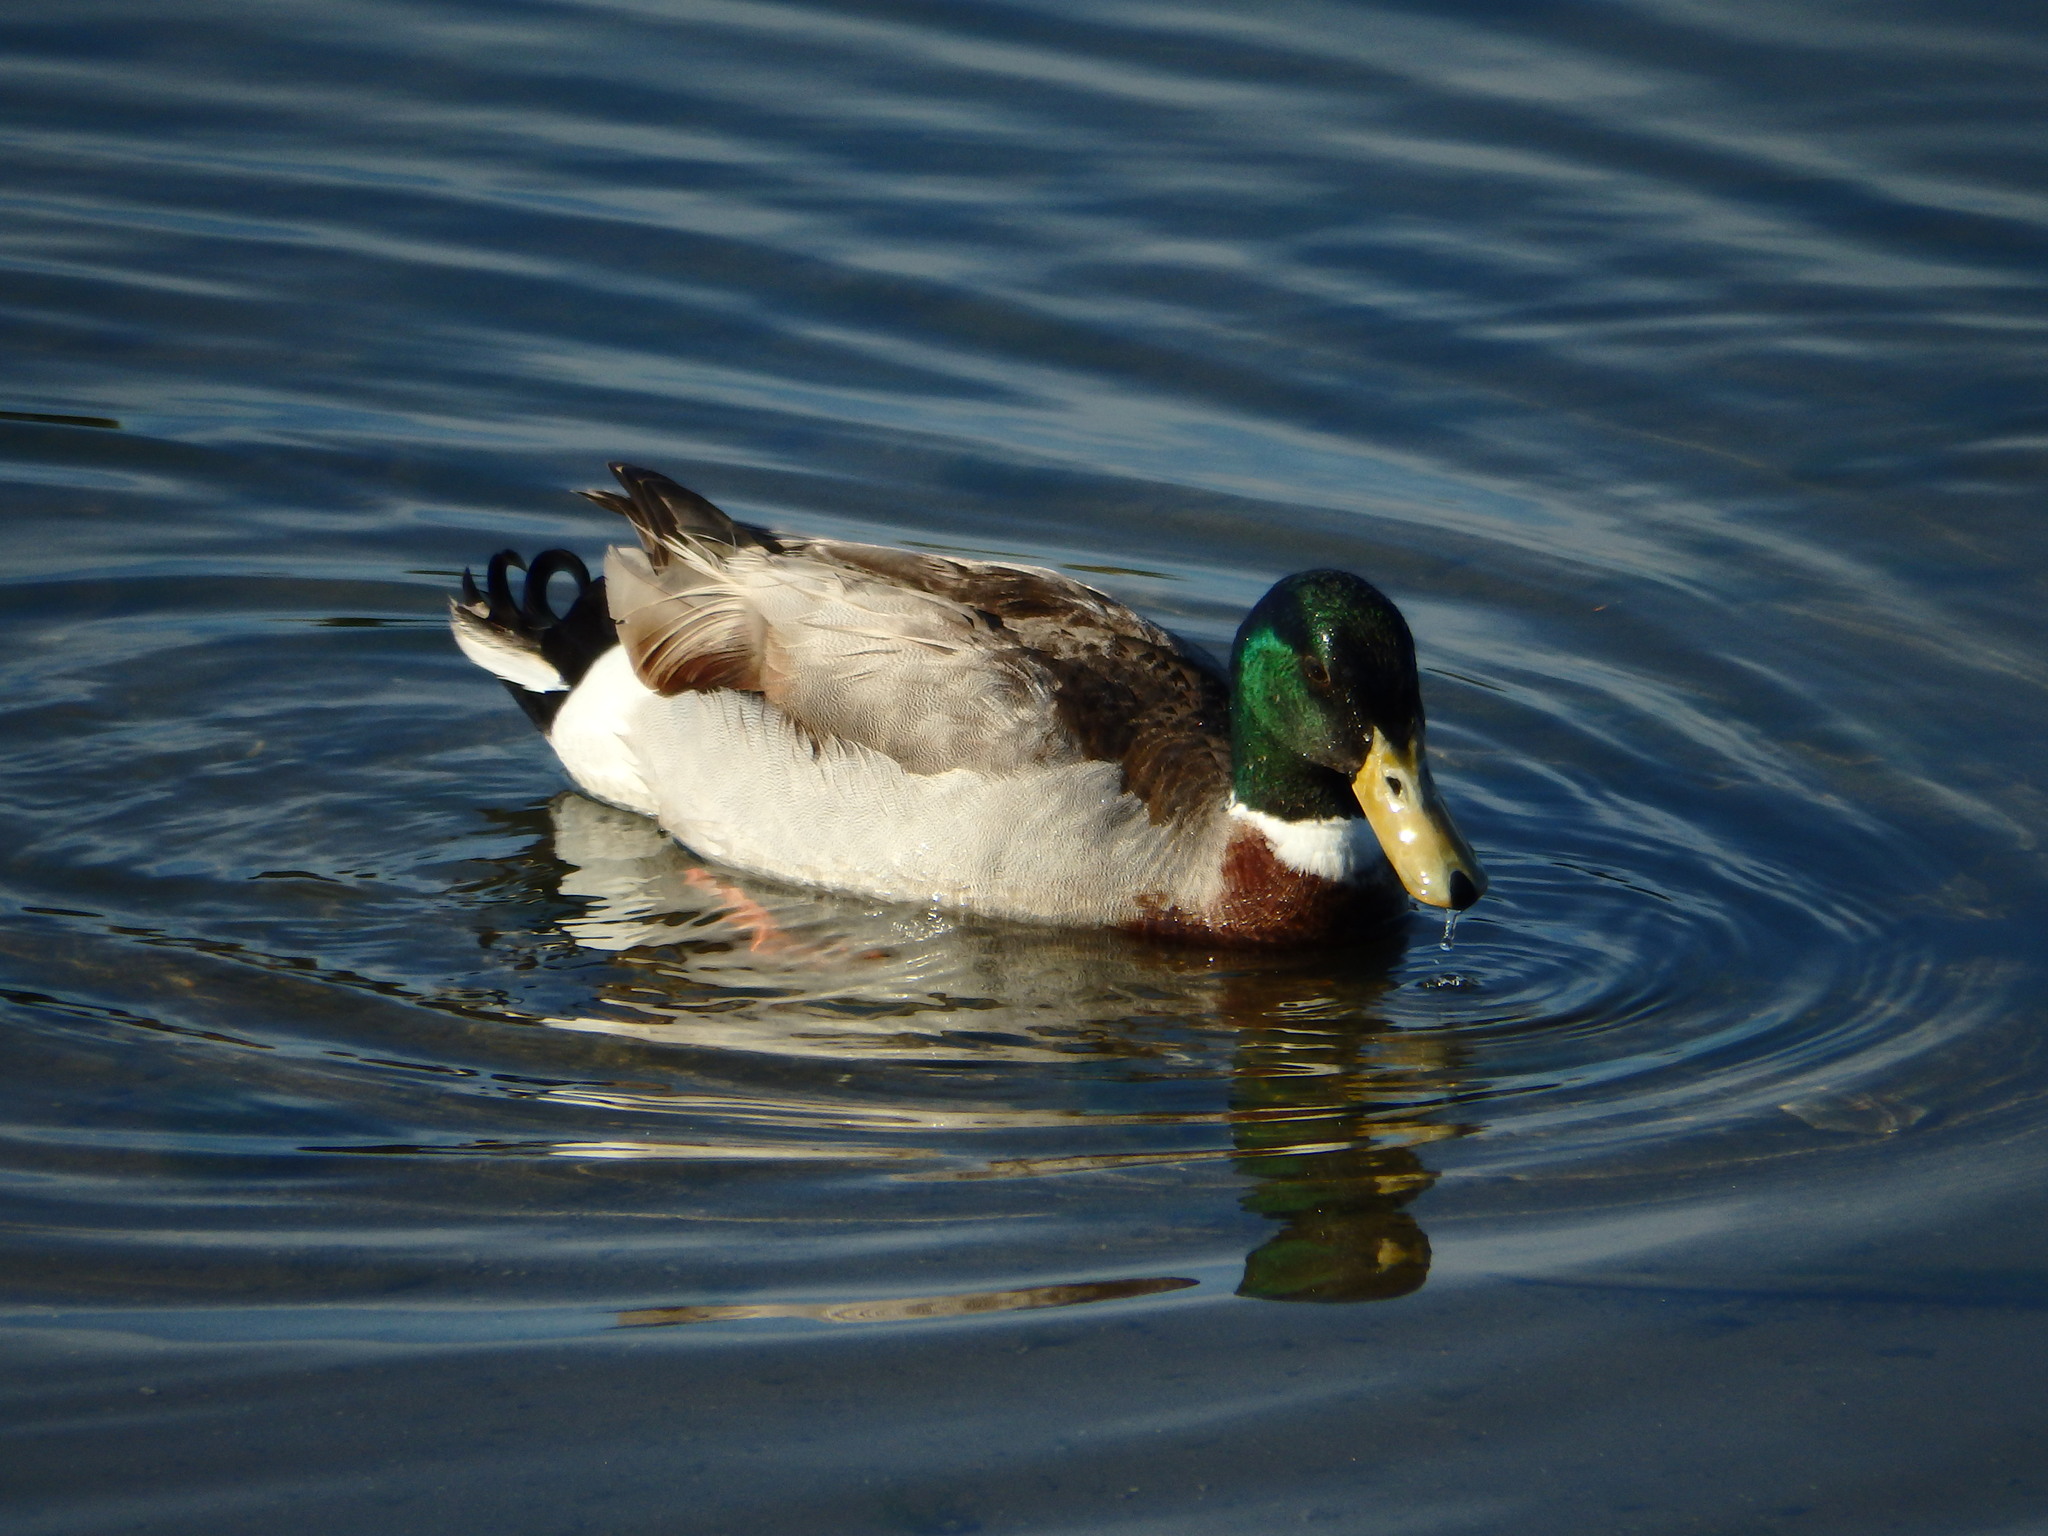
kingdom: Animalia
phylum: Chordata
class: Aves
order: Anseriformes
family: Anatidae
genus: Anas
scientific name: Anas platyrhynchos
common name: Mallard
